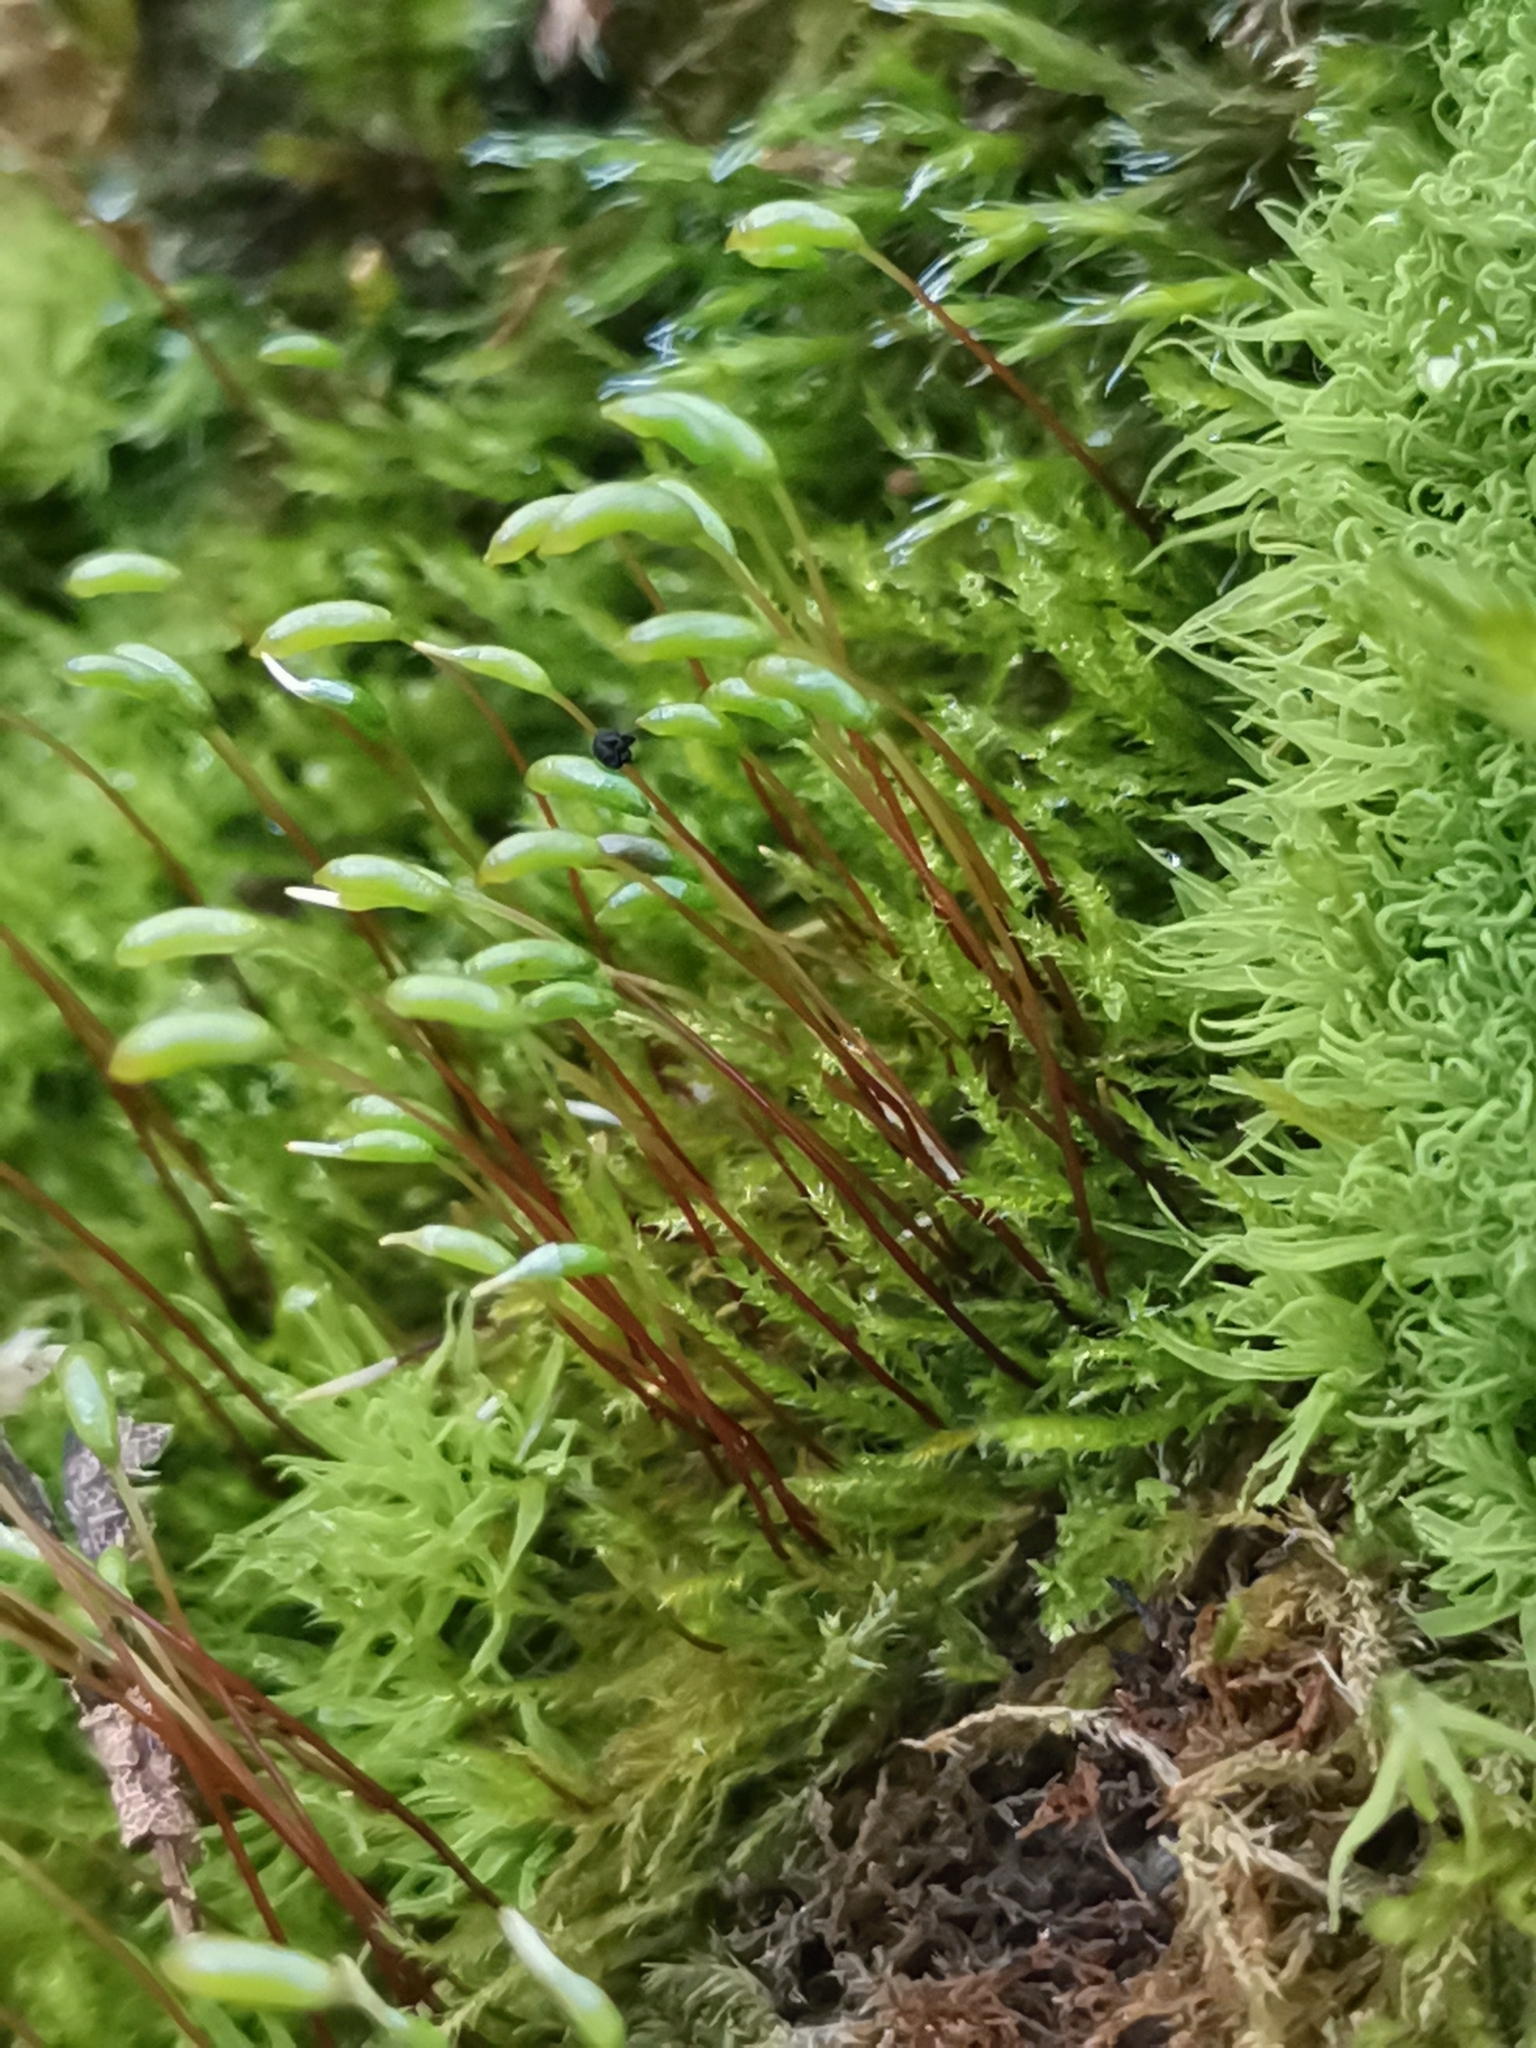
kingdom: Plantae
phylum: Bryophyta
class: Bryopsida
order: Hypnales
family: Amblystegiaceae
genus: Amblystegium
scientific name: Amblystegium serpens
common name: Jurkatzka's feather moss
